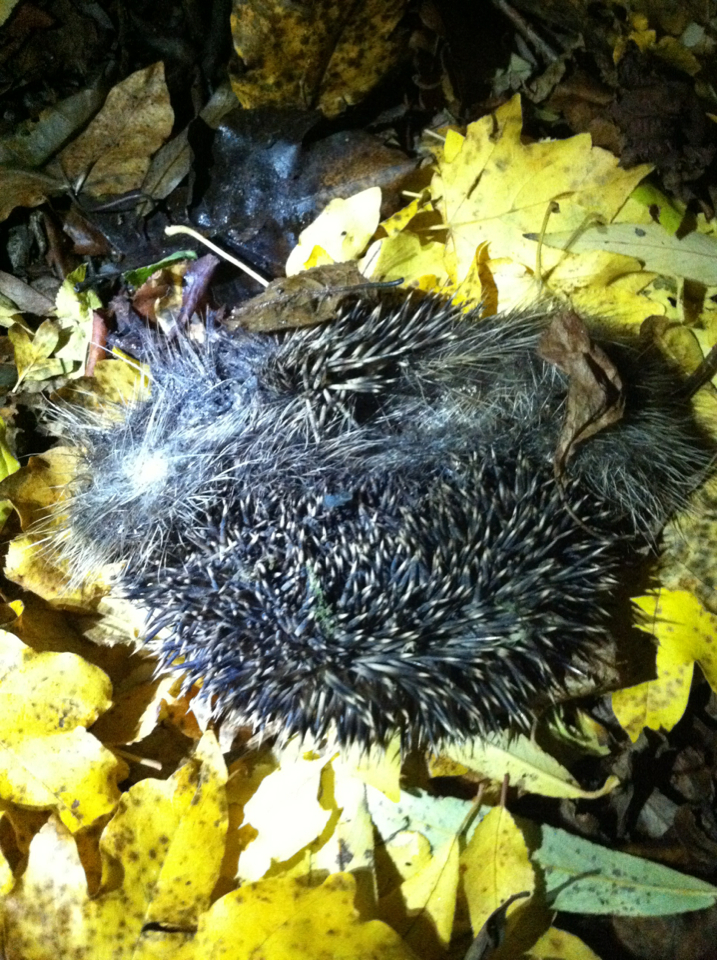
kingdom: Animalia
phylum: Chordata
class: Mammalia
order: Erinaceomorpha
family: Erinaceidae
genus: Erinaceus
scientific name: Erinaceus europaeus
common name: West european hedgehog
